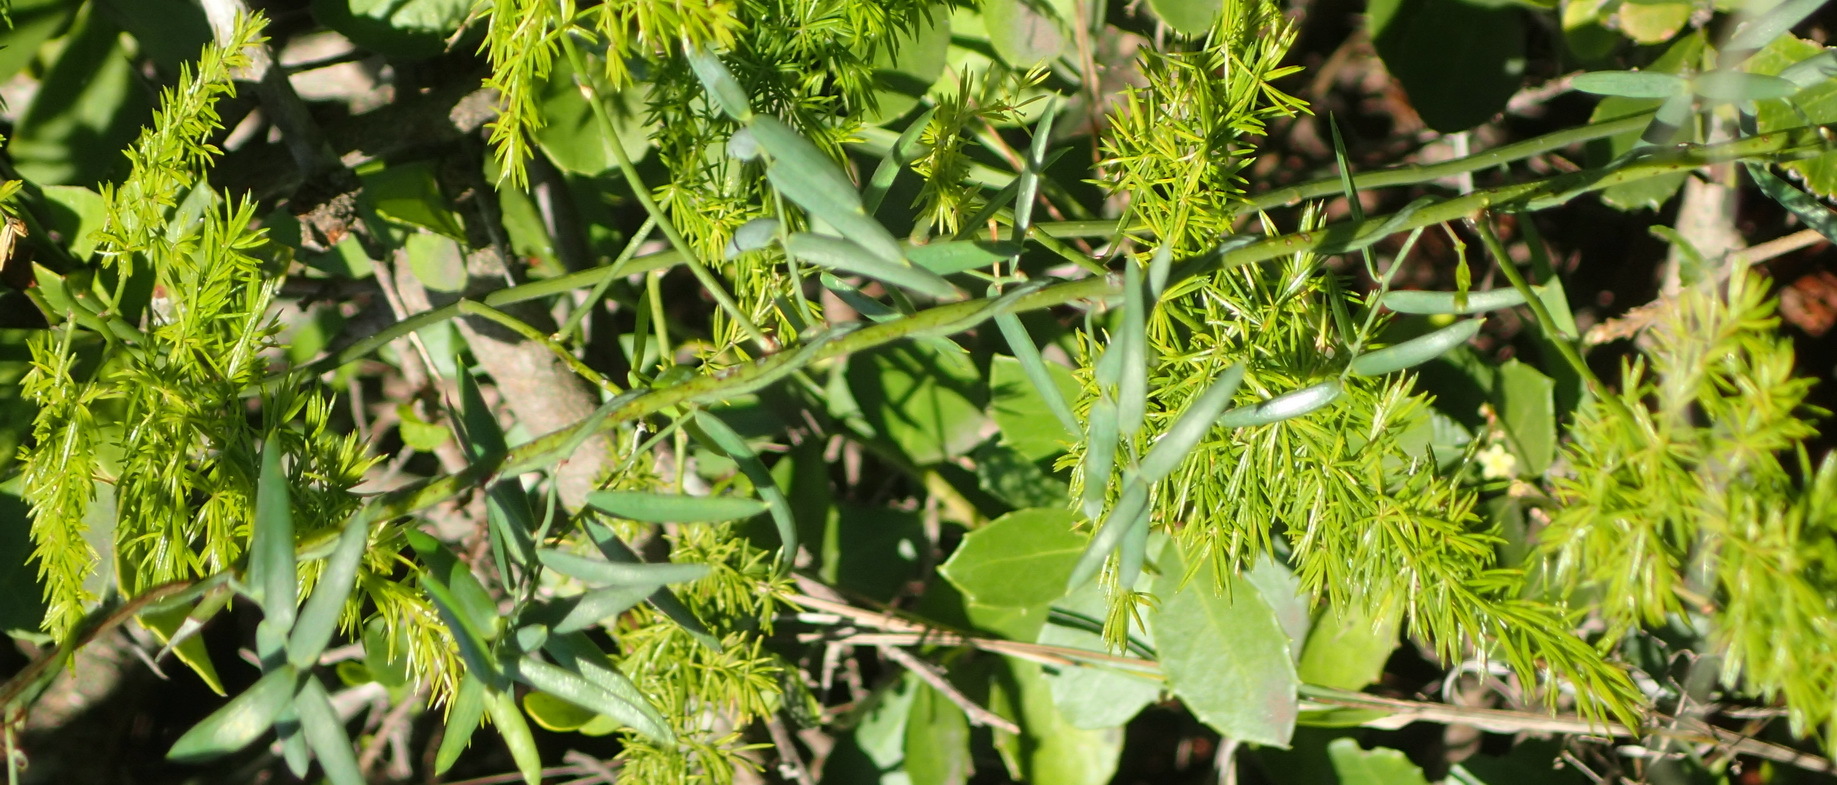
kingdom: Plantae
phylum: Tracheophyta
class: Liliopsida
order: Asparagales
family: Asparagaceae
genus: Asparagus
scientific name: Asparagus volubilis
